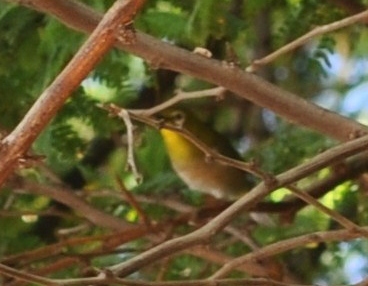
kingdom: Animalia
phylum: Chordata
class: Aves
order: Passeriformes
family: Zosteropidae
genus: Zosterops
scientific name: Zosterops japonicus
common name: Japanese white-eye
